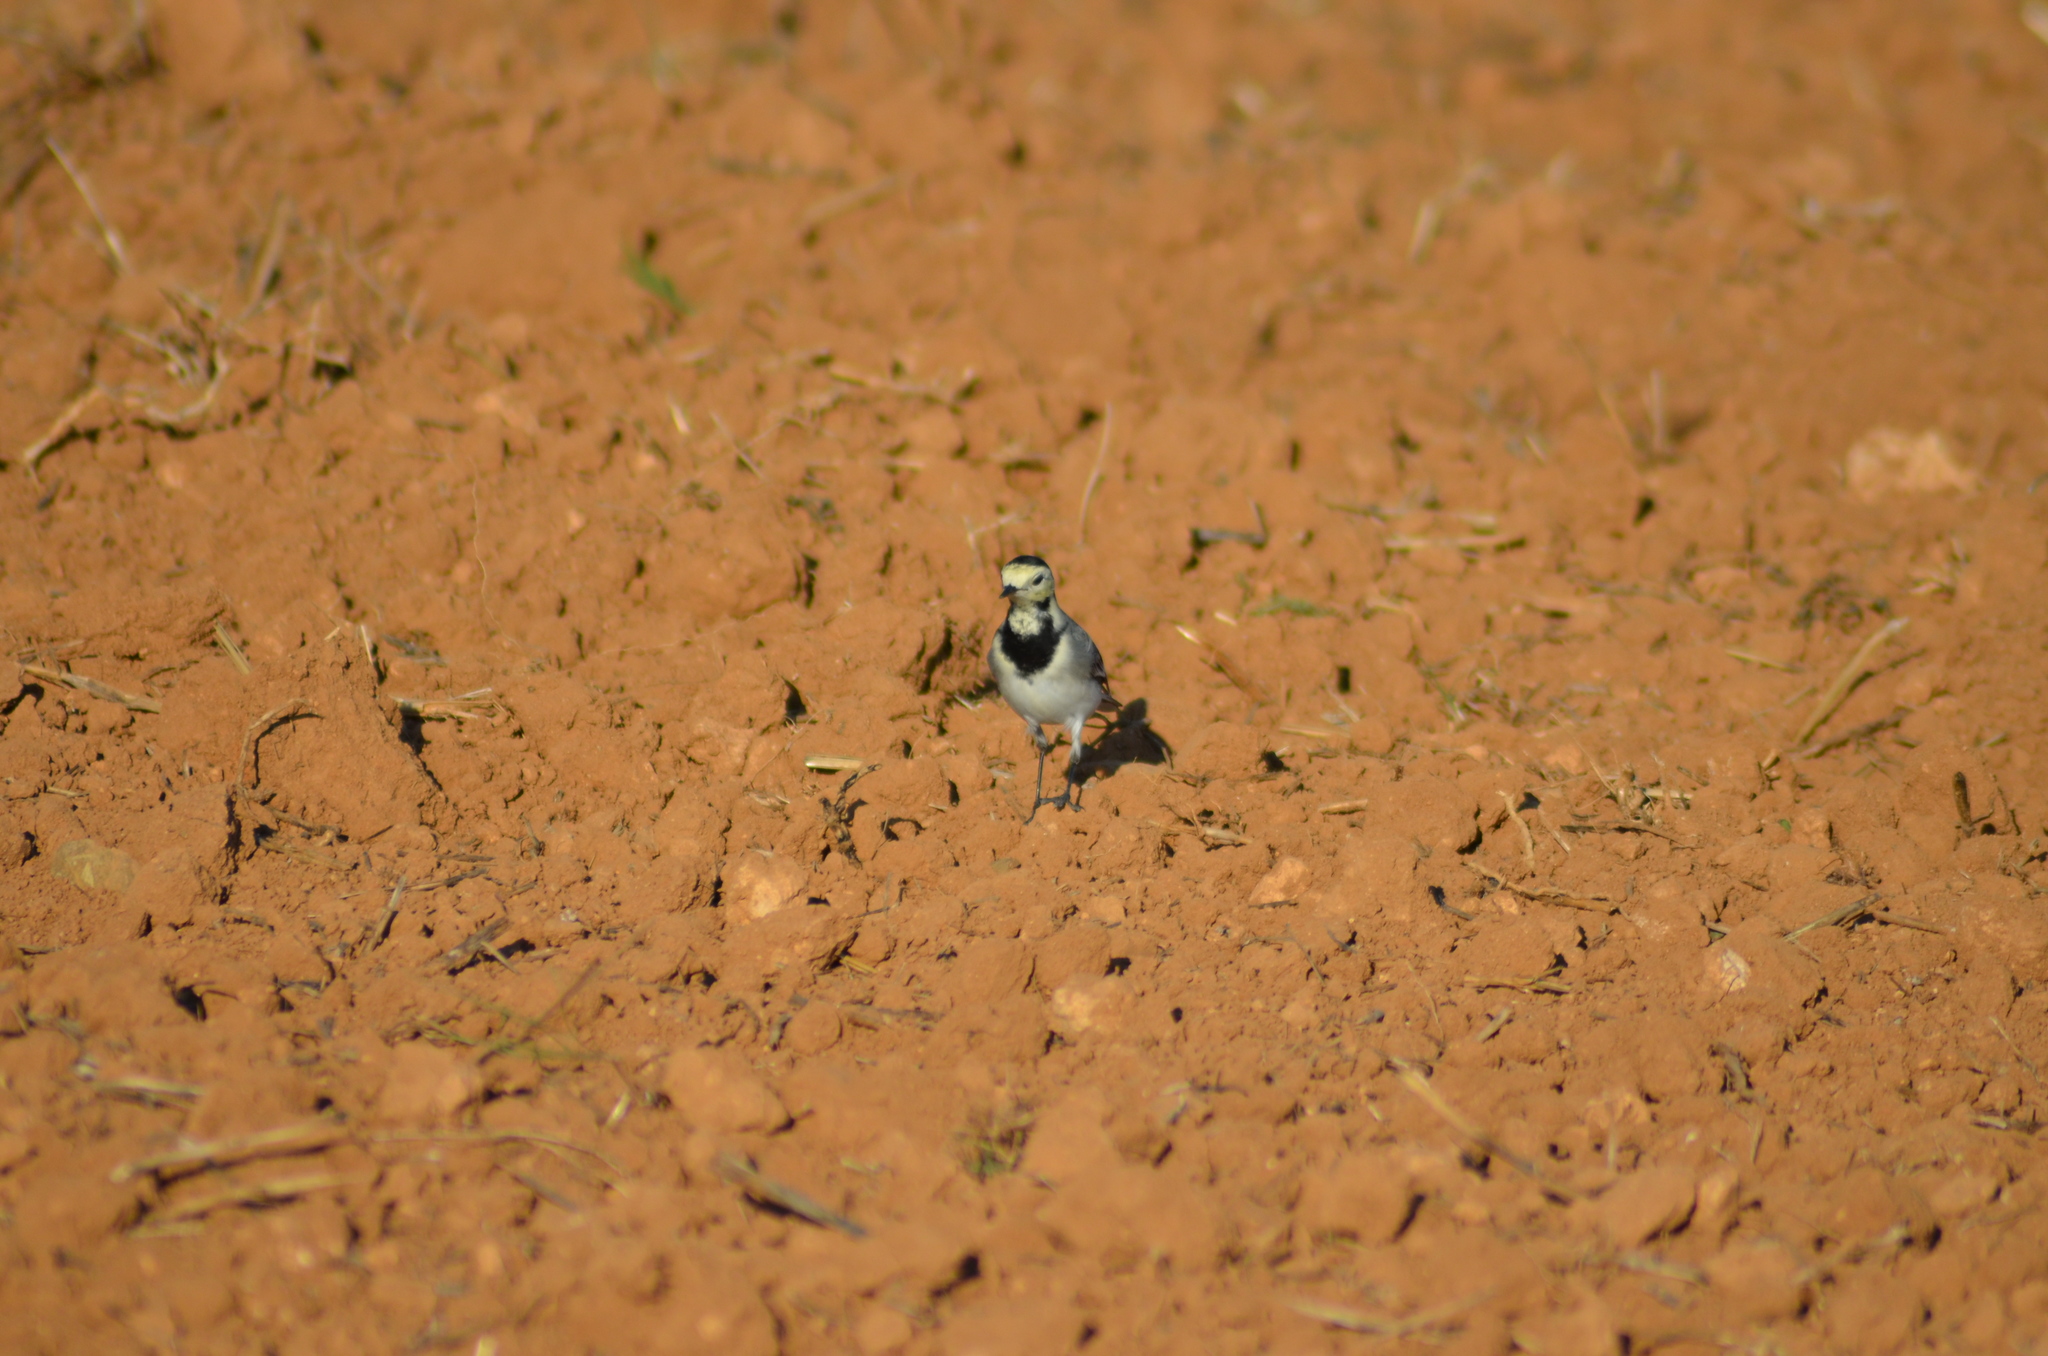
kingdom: Animalia
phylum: Chordata
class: Aves
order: Passeriformes
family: Motacillidae
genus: Motacilla
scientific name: Motacilla alba
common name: White wagtail
